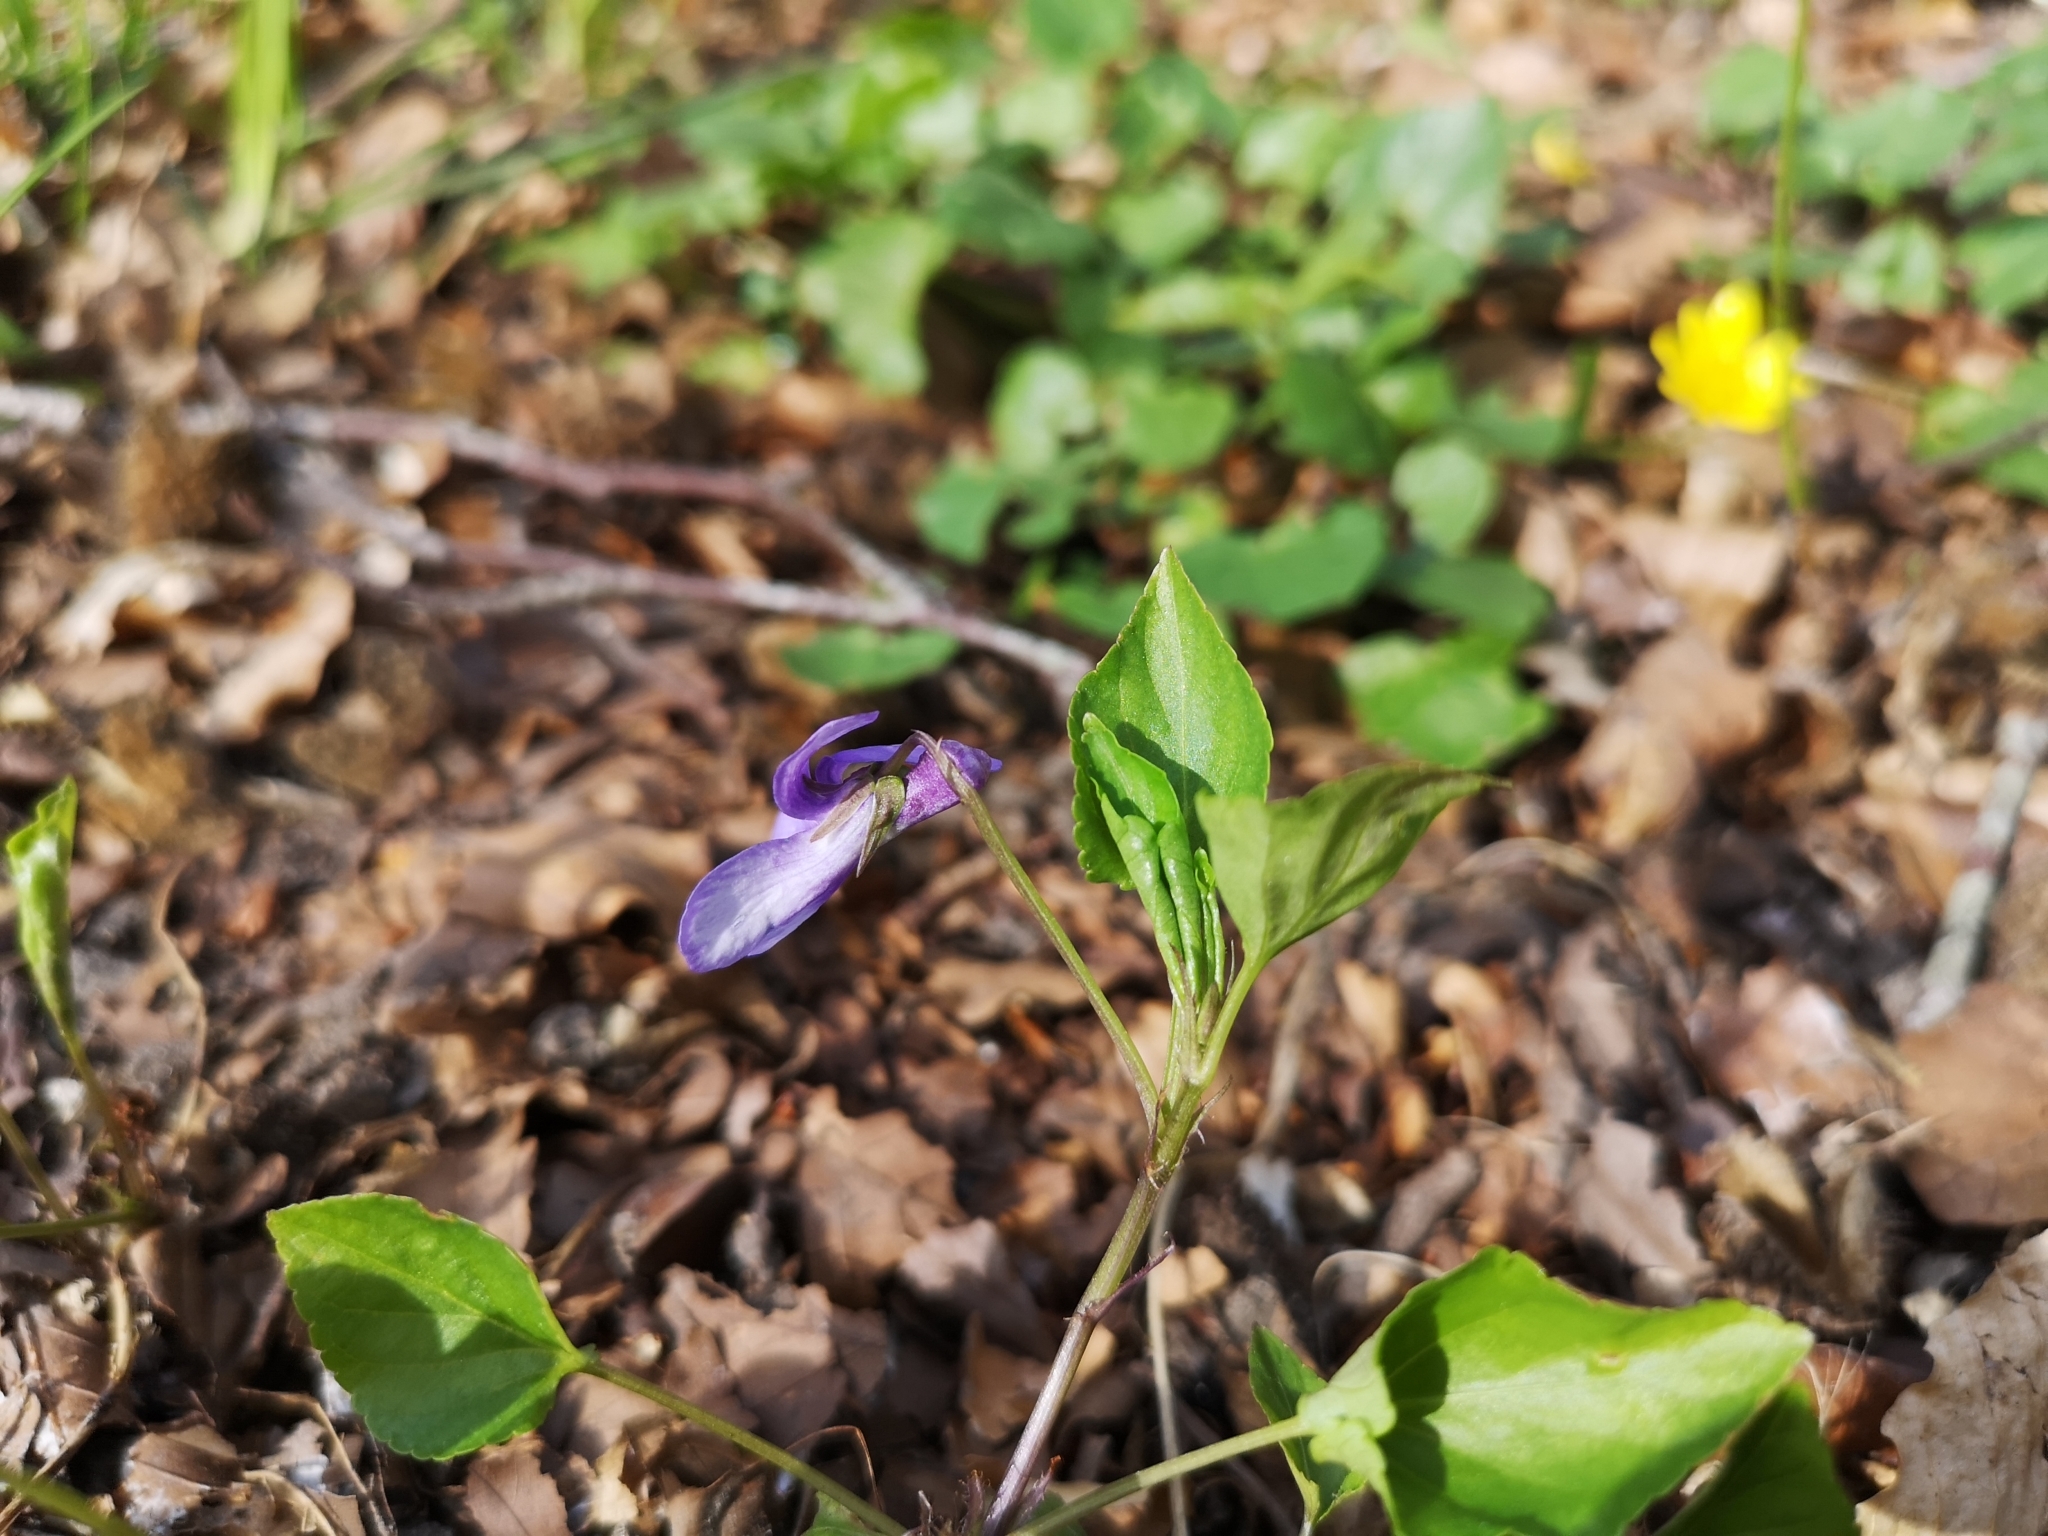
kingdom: Plantae
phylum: Tracheophyta
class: Magnoliopsida
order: Malpighiales
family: Violaceae
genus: Viola
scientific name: Viola reichenbachiana
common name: Early dog-violet
